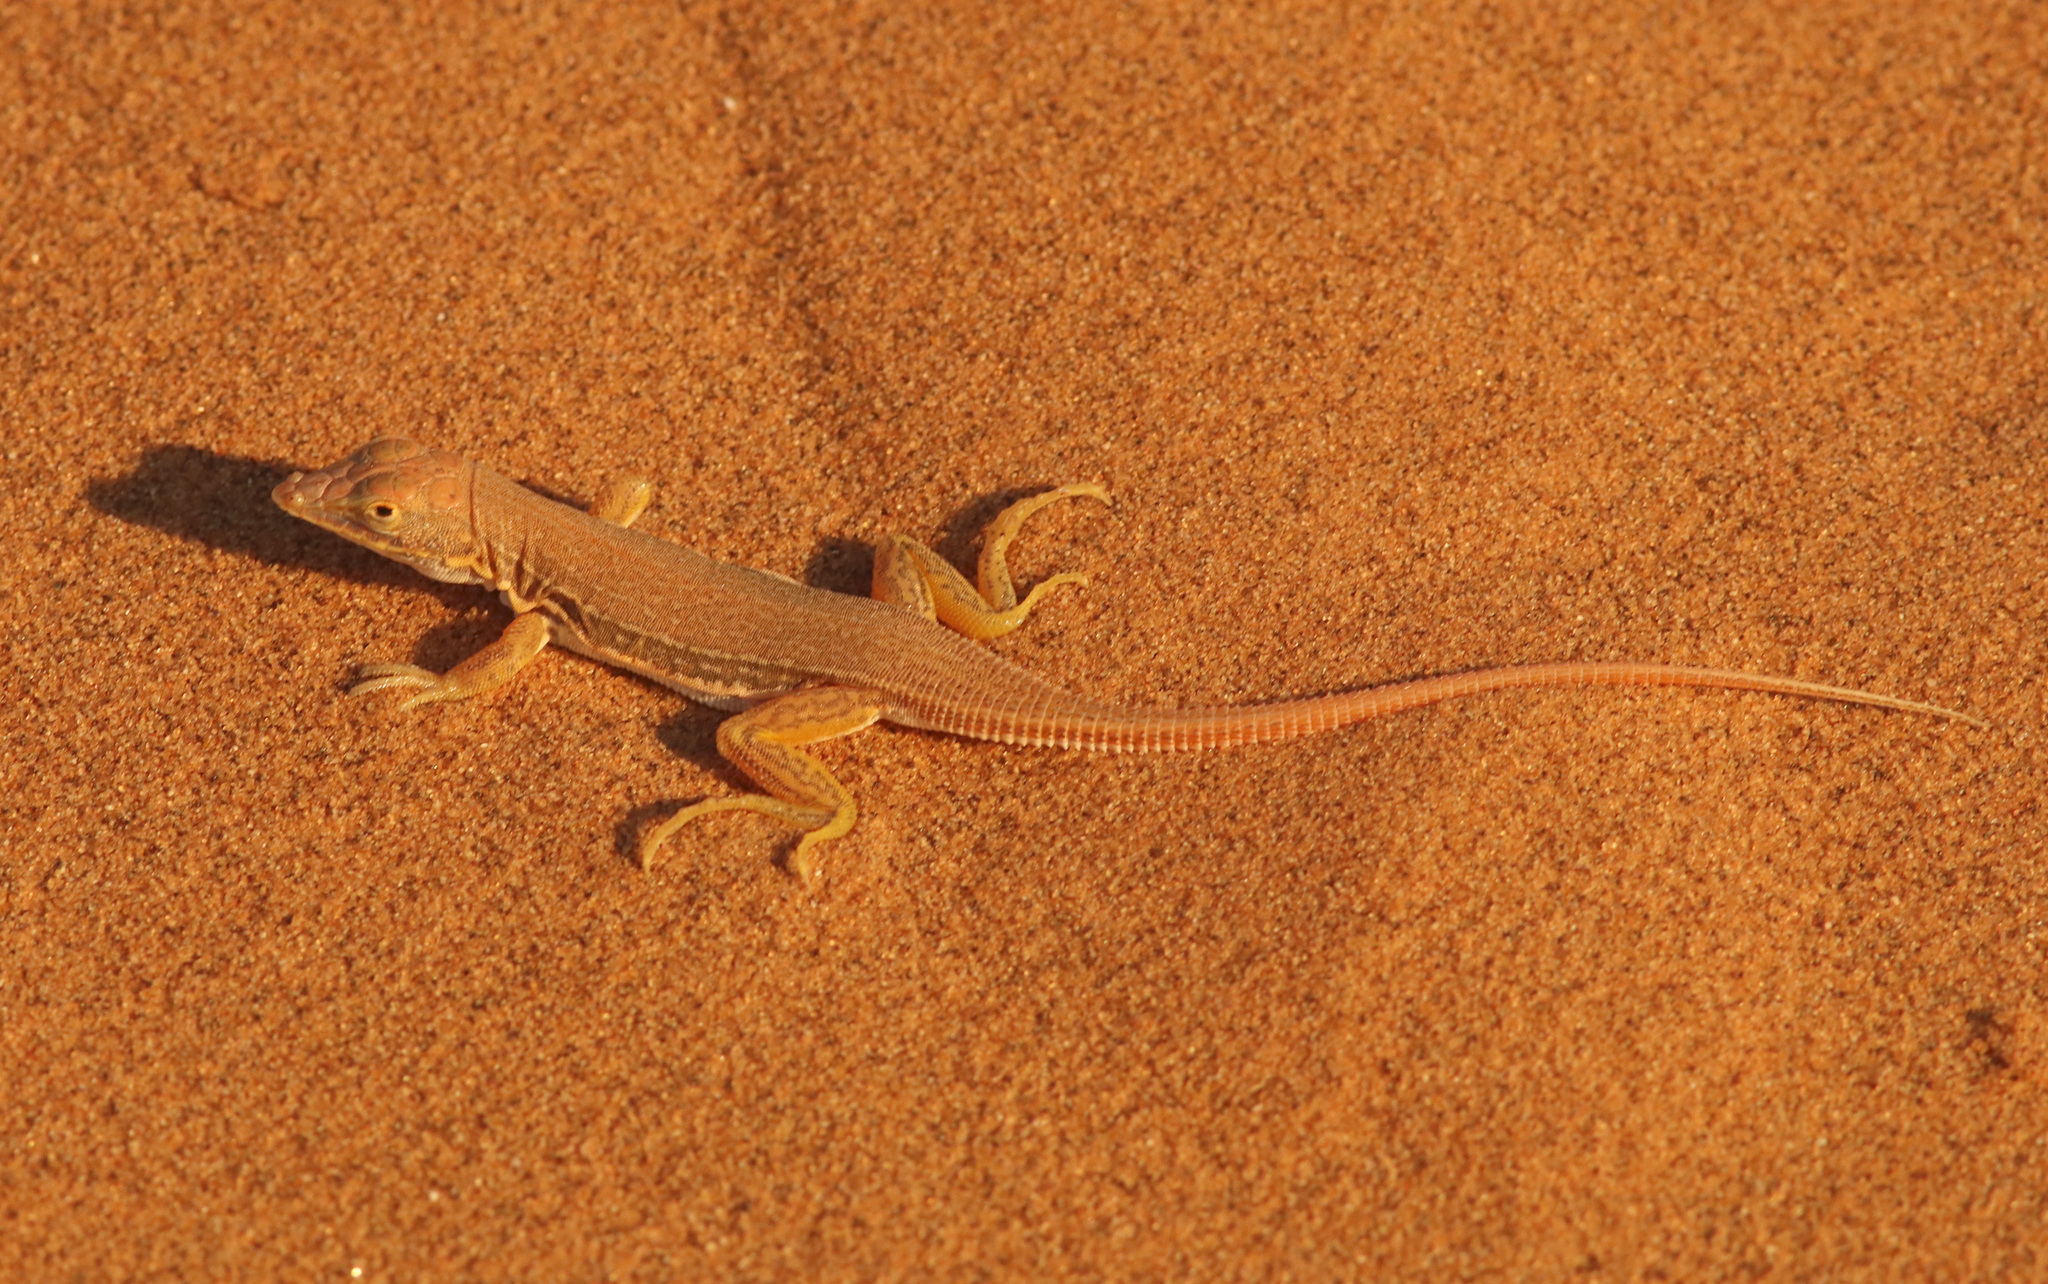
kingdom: Animalia
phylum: Chordata
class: Squamata
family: Lacertidae
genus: Meroles
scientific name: Meroles cuneirostris
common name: Wedge-snouted desert lizard
